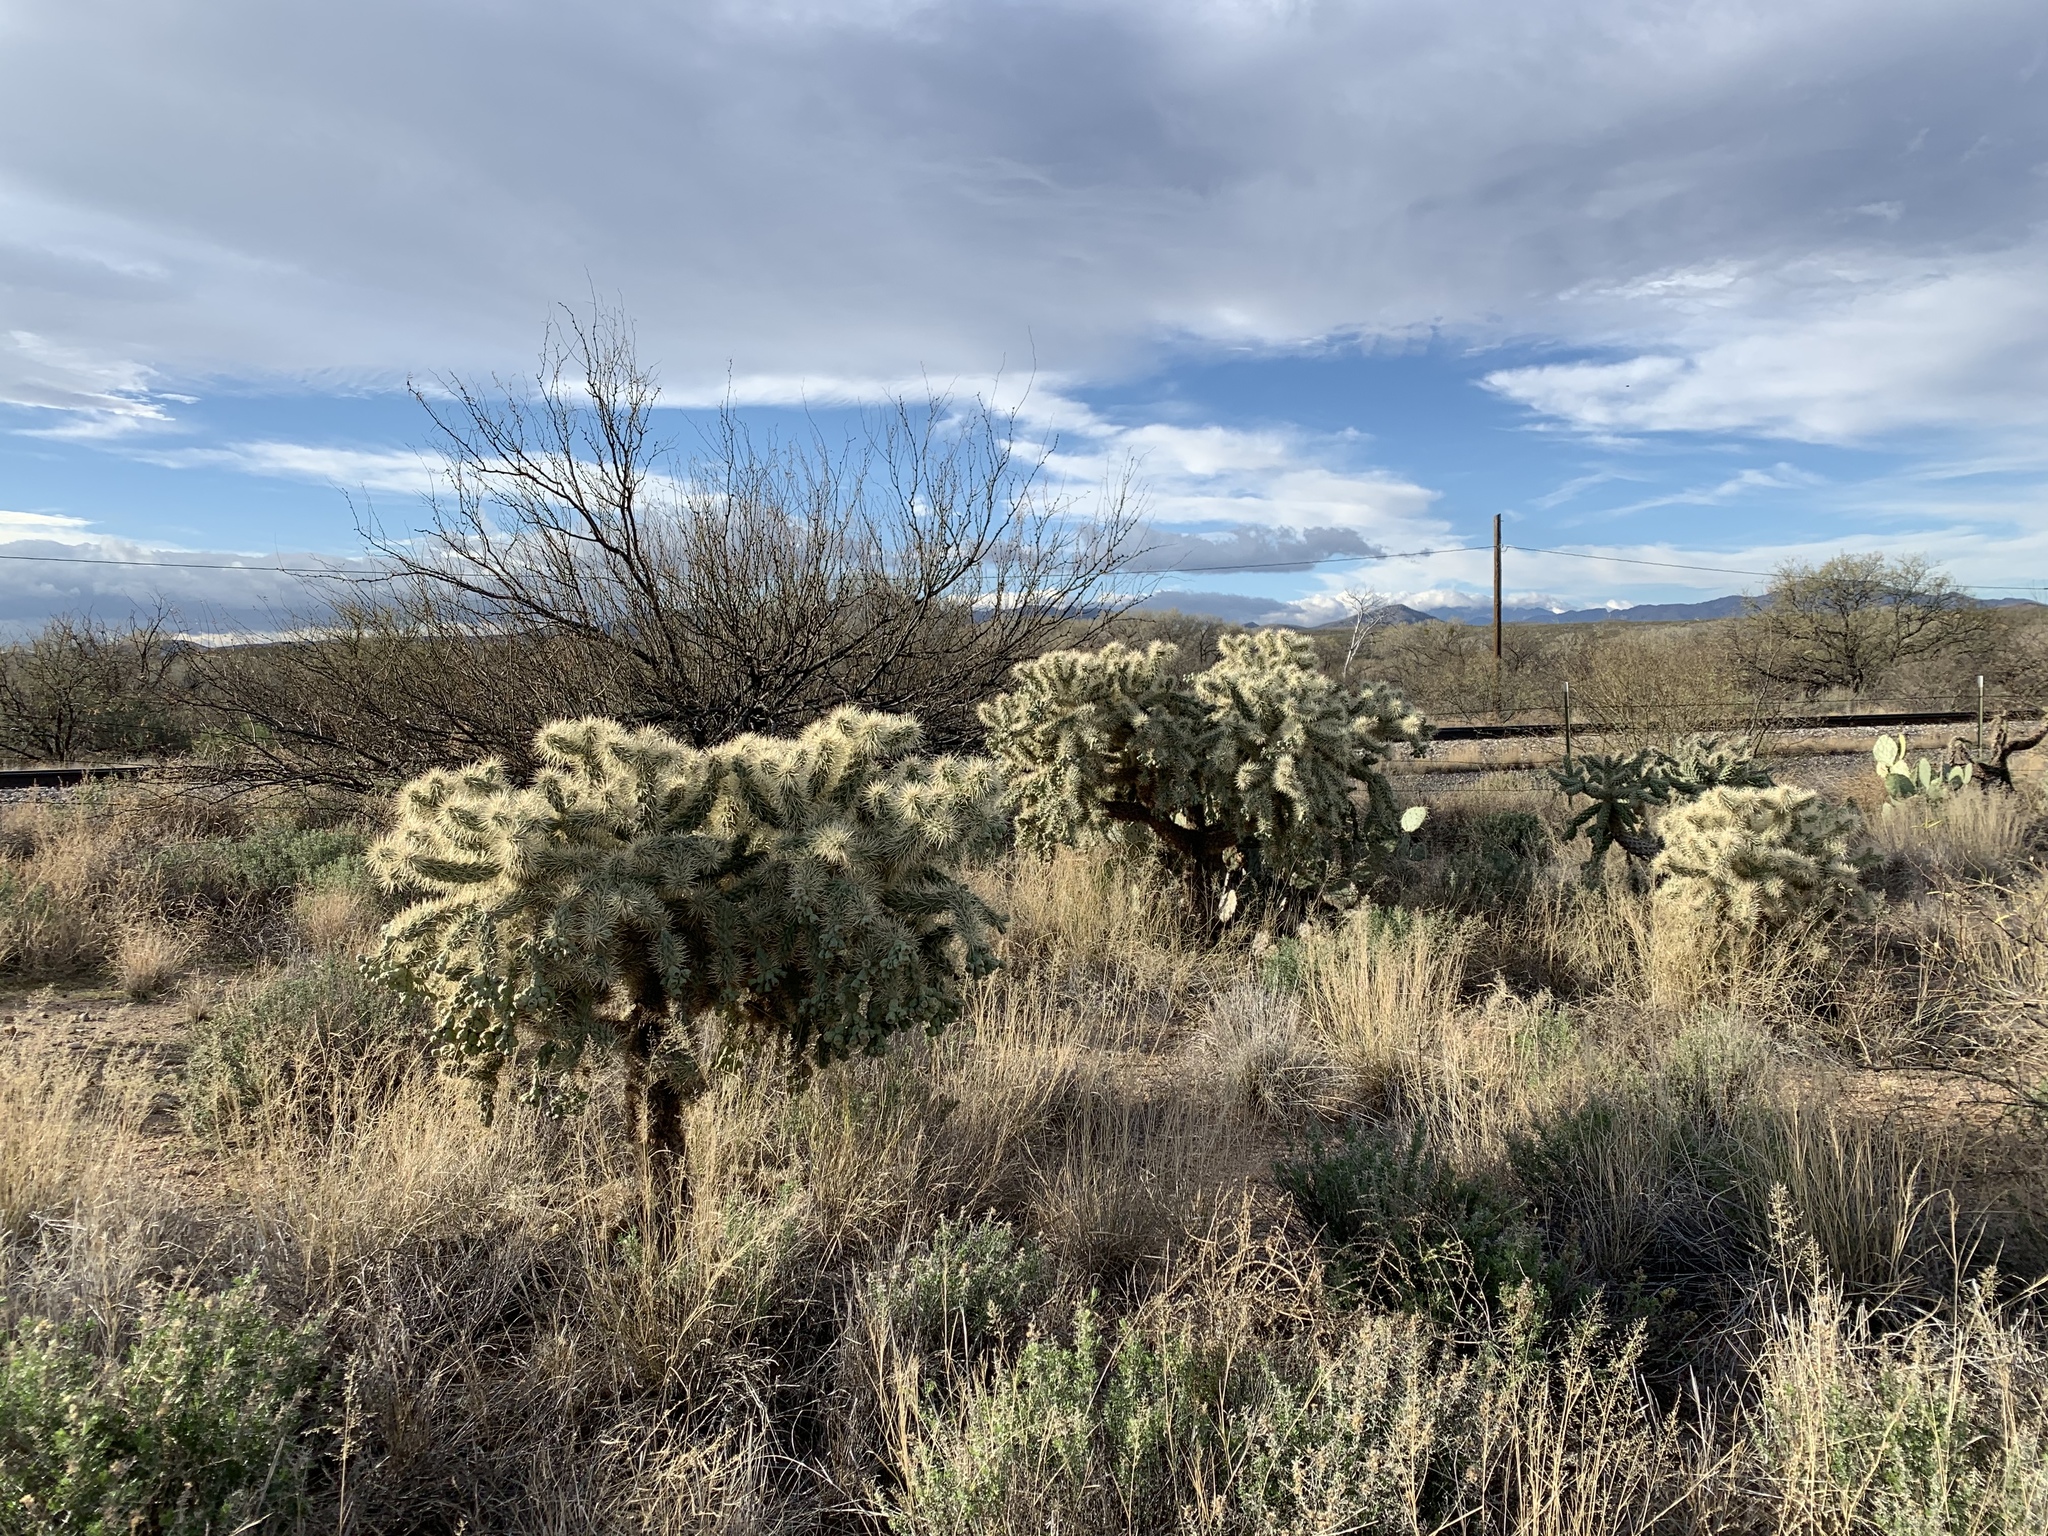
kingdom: Plantae
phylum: Tracheophyta
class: Magnoliopsida
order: Caryophyllales
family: Cactaceae
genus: Cylindropuntia
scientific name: Cylindropuntia fulgida
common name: Jumping cholla
